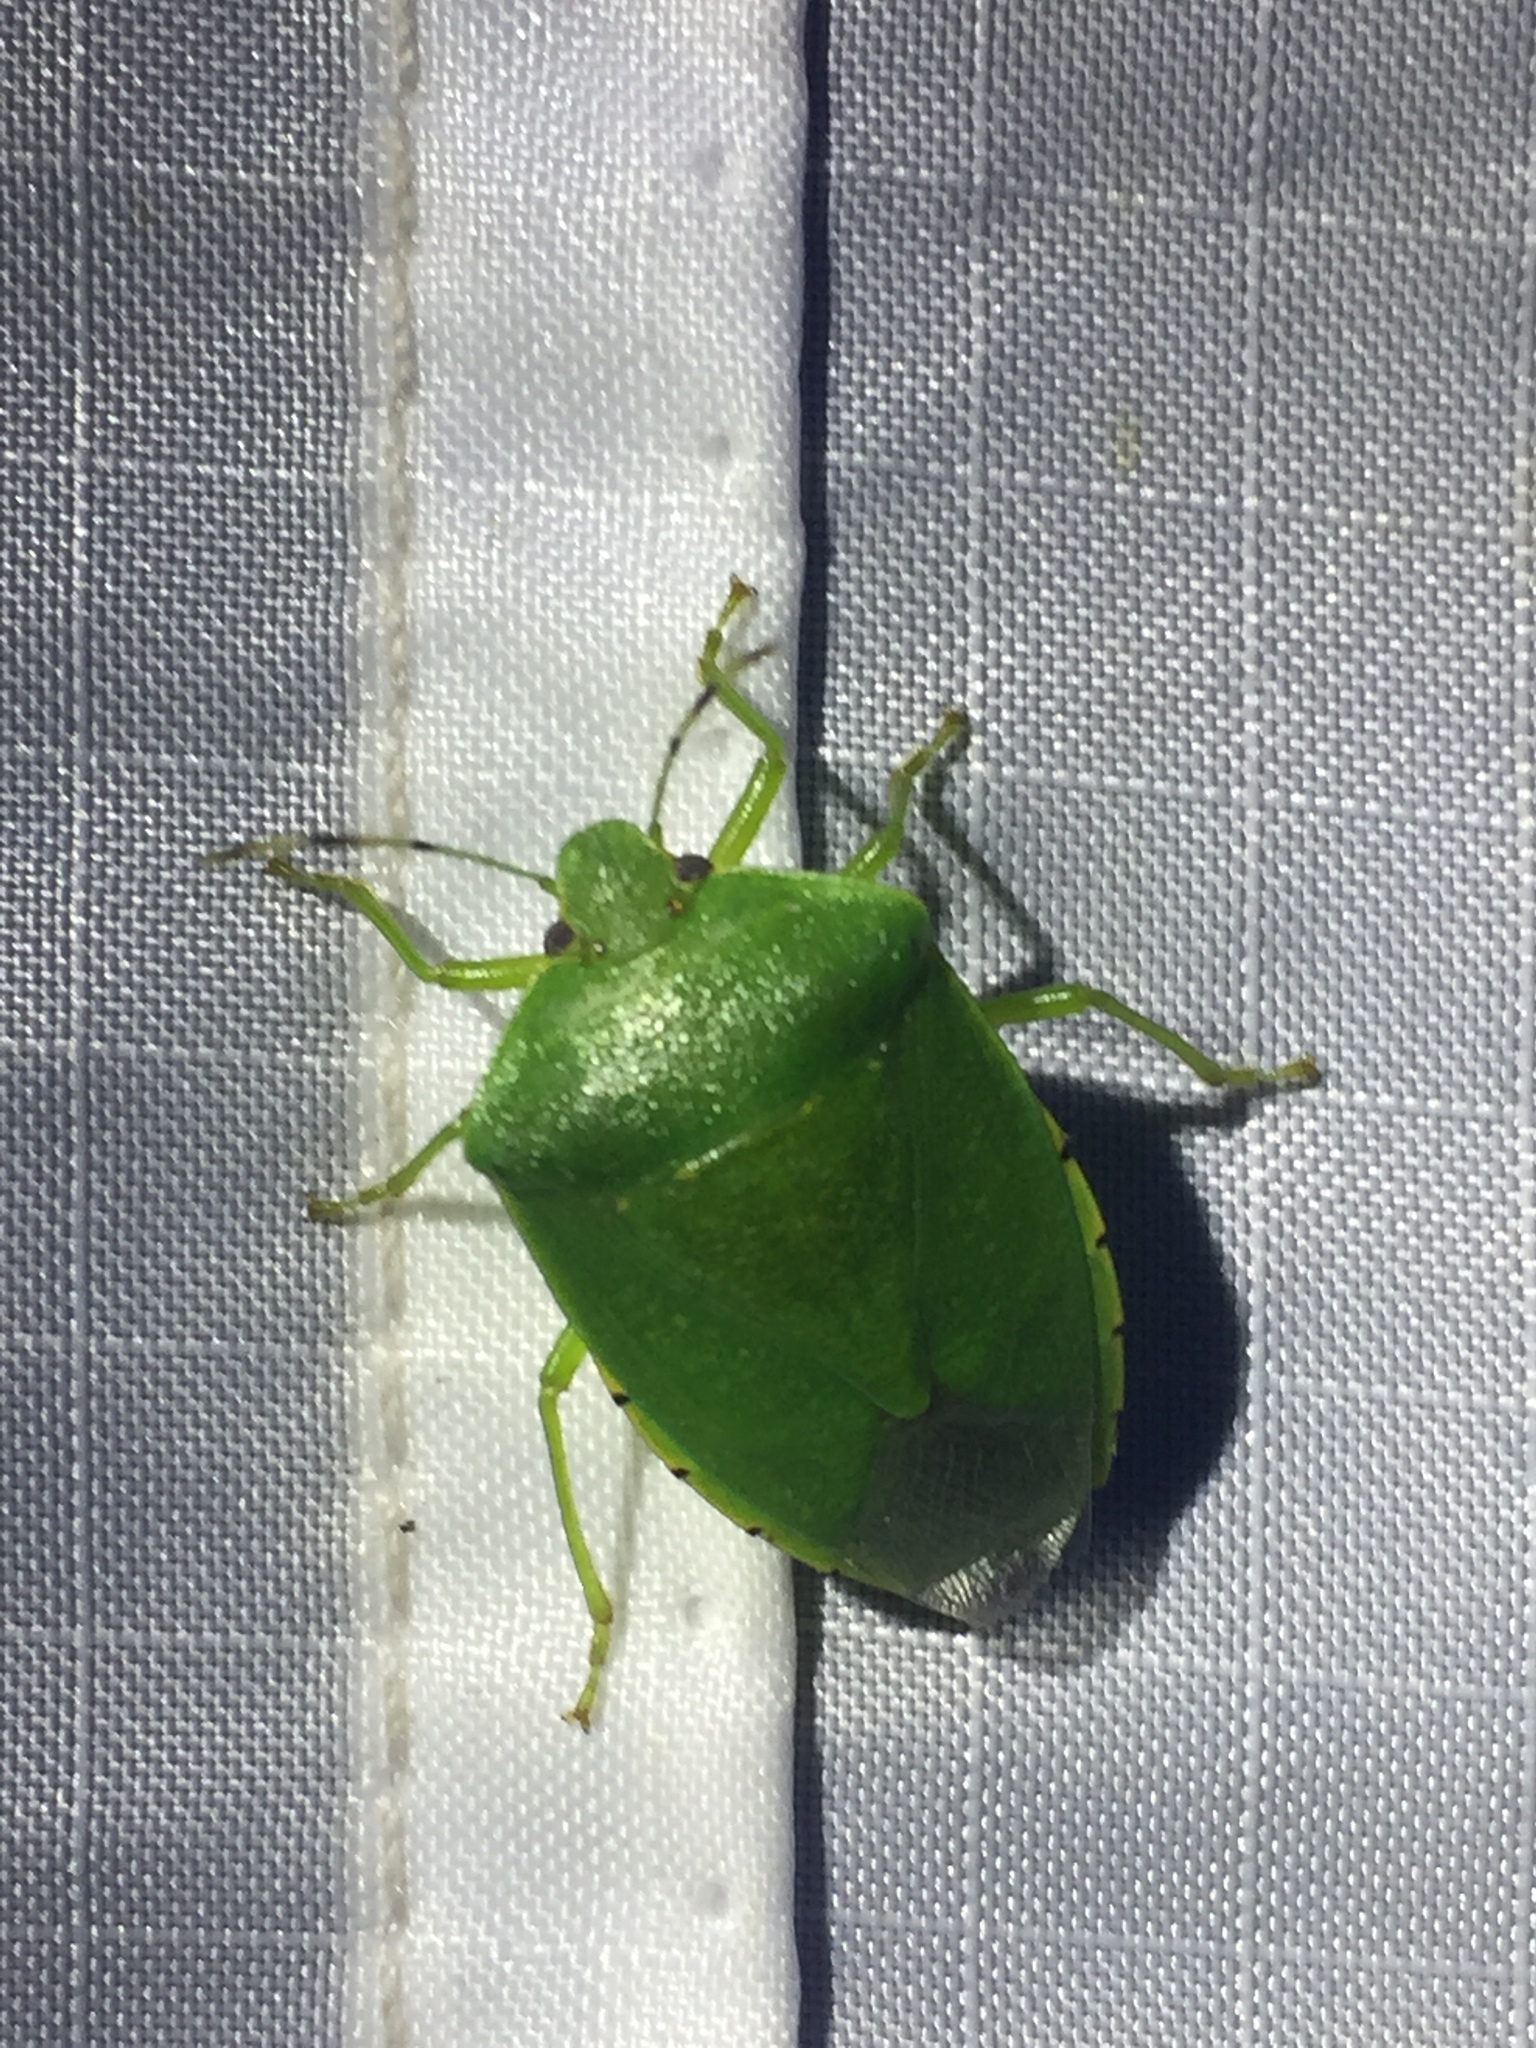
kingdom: Animalia
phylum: Arthropoda
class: Insecta
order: Hemiptera
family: Pentatomidae
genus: Chinavia
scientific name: Chinavia hilaris
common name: Green stink bug
